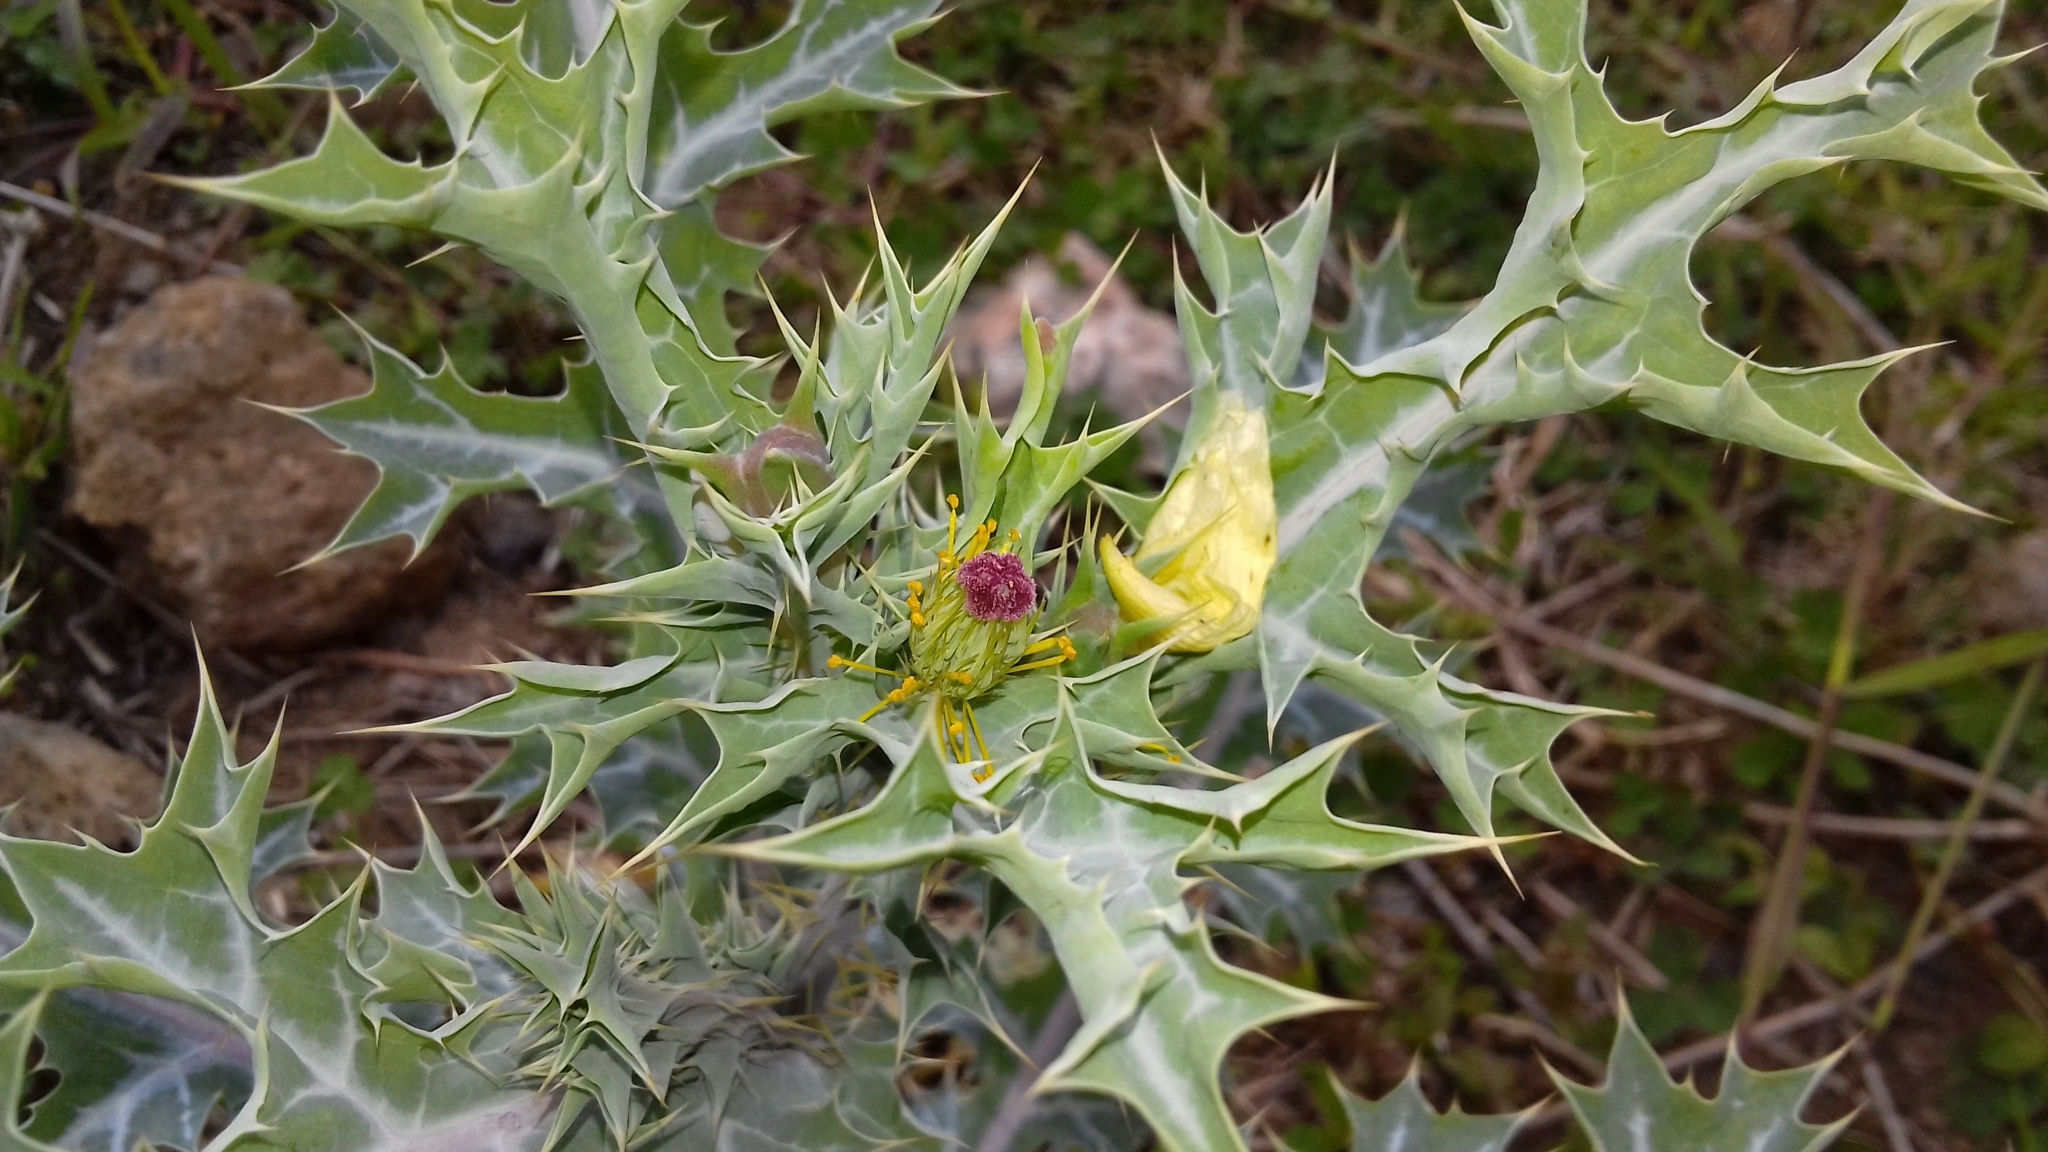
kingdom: Plantae
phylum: Tracheophyta
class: Magnoliopsida
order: Ranunculales
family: Papaveraceae
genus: Argemone
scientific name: Argemone ochroleuca
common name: White-flower mexican-poppy
